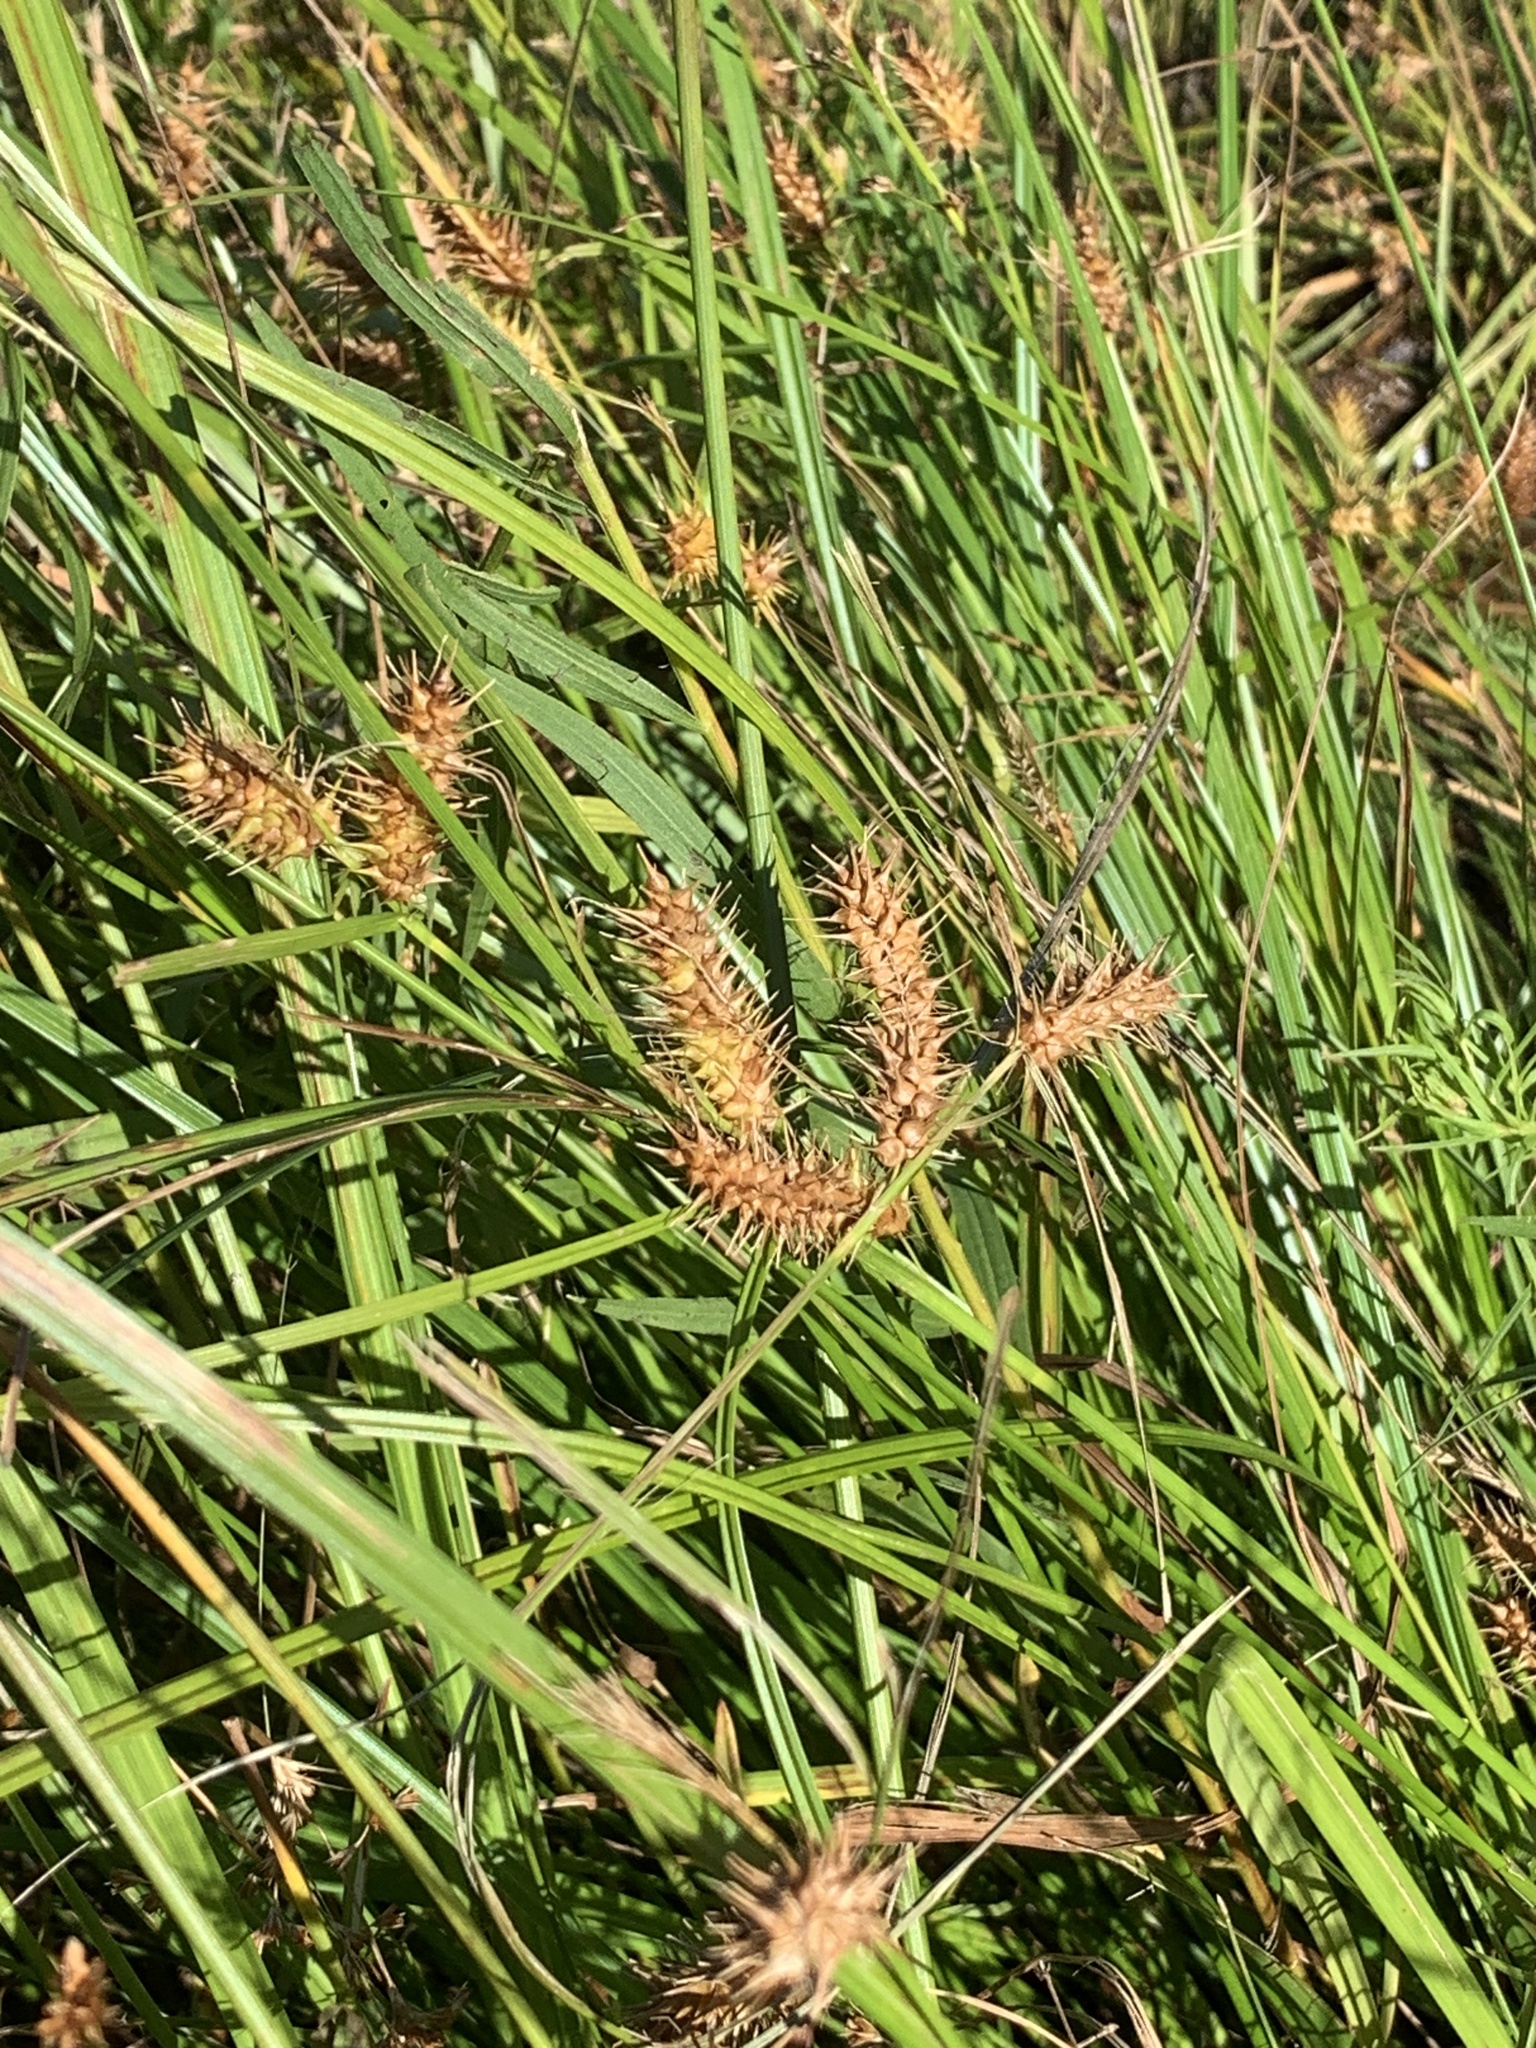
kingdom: Plantae
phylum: Tracheophyta
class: Liliopsida
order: Poales
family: Cyperaceae
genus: Carex
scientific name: Carex lurida
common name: Sallow sedge
